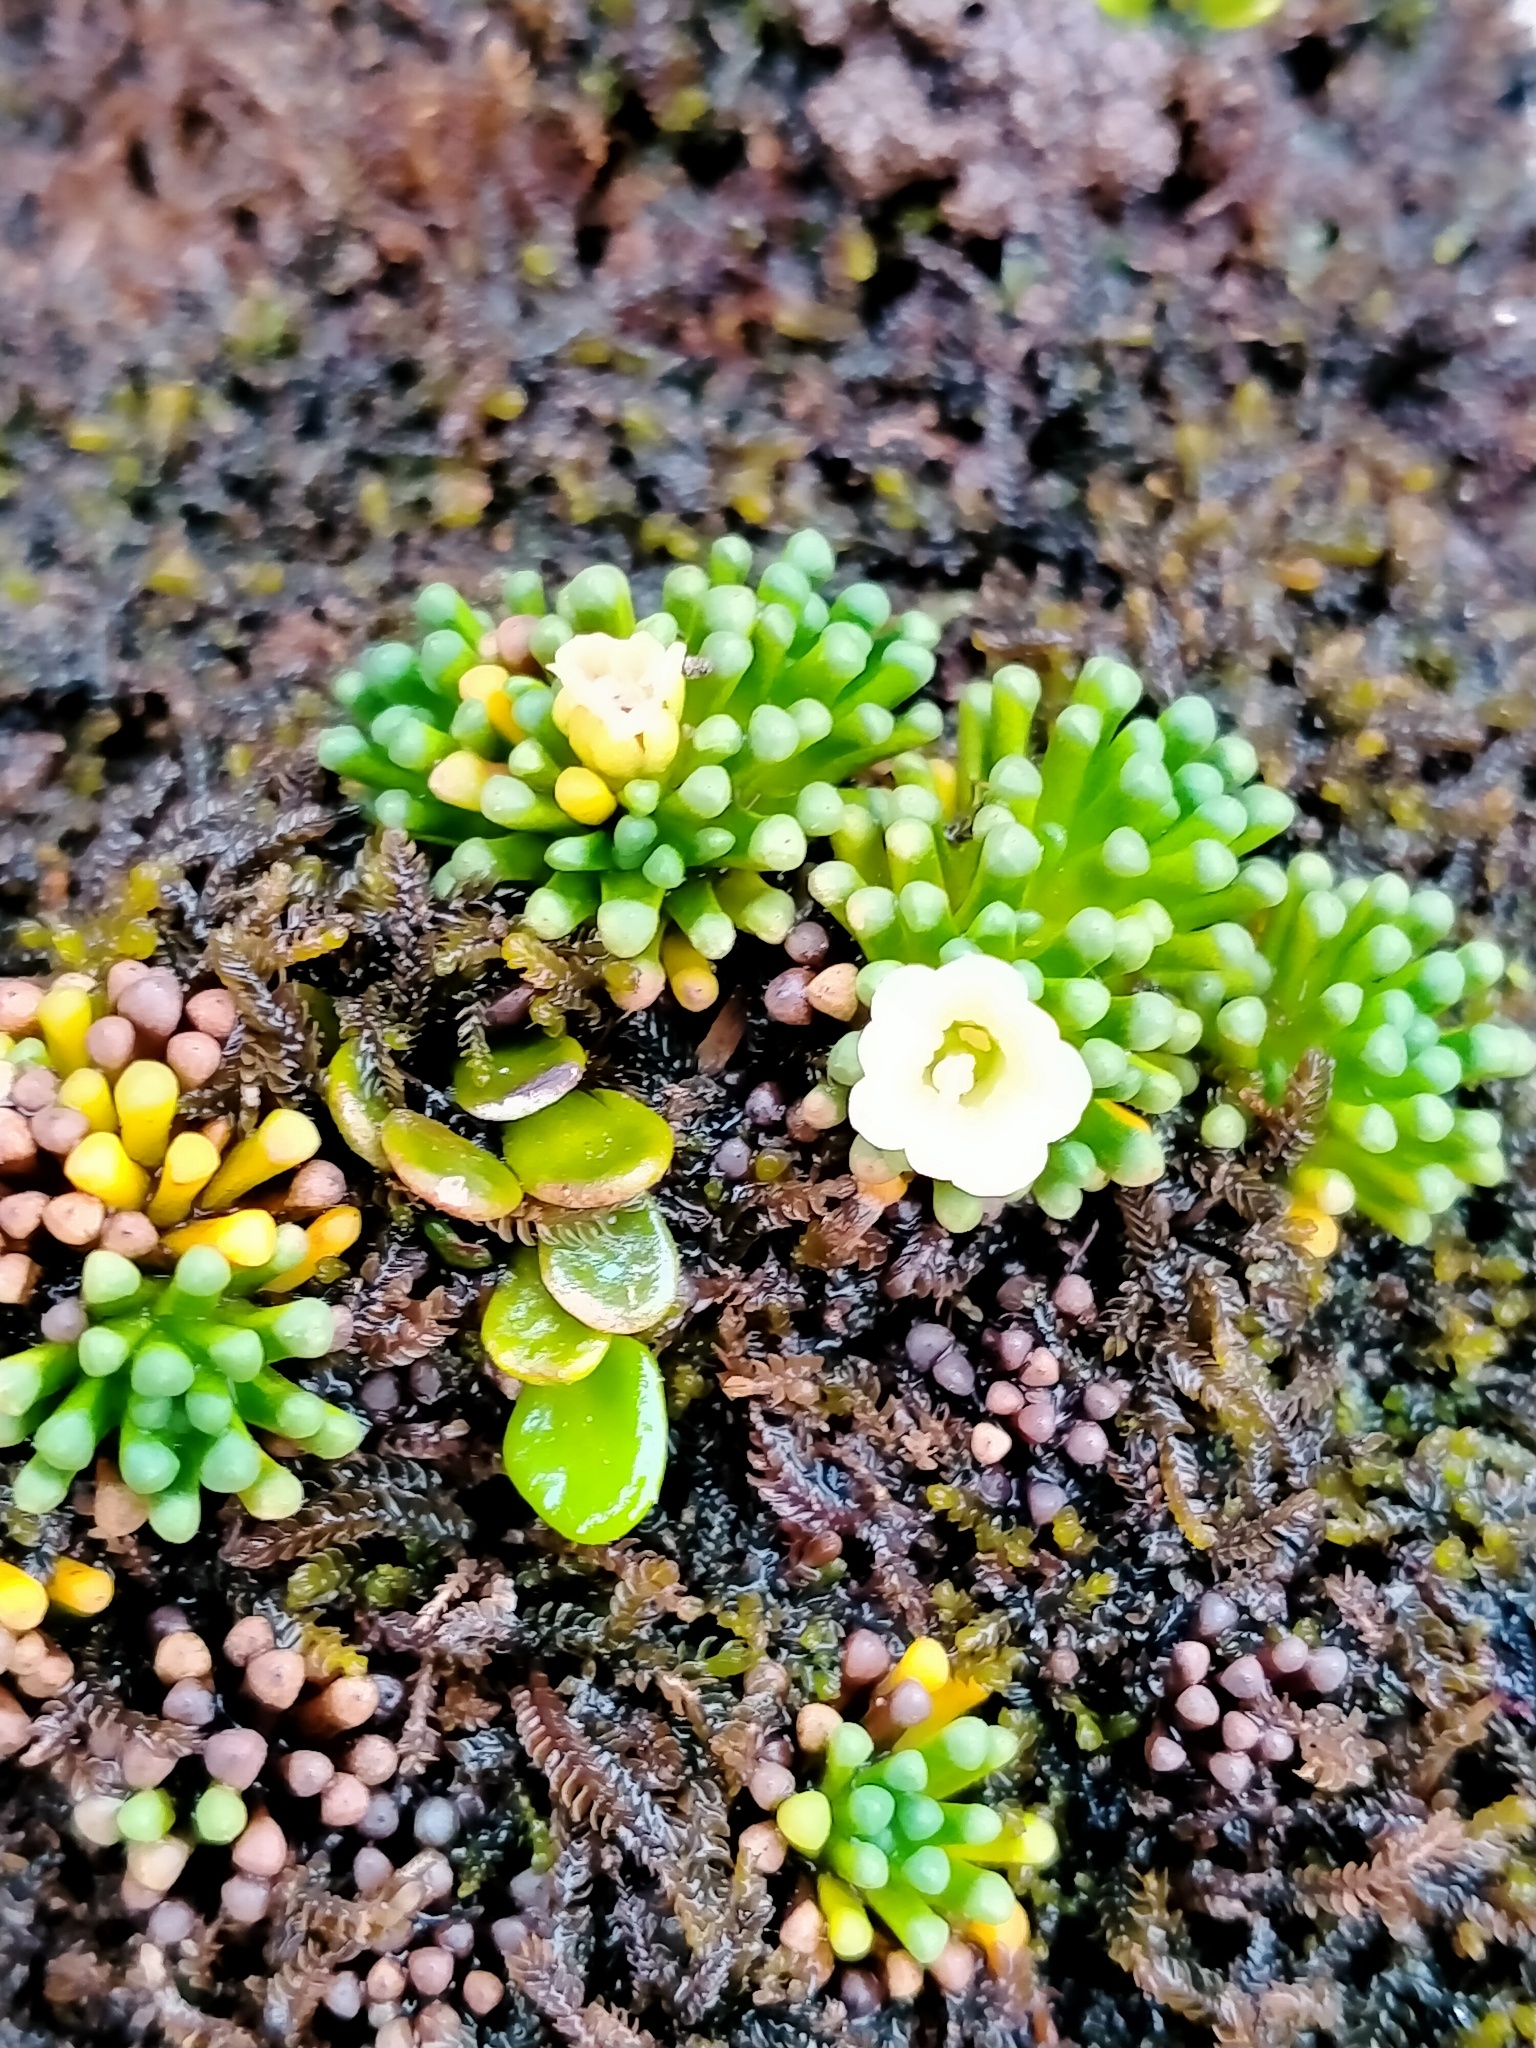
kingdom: Plantae
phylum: Tracheophyta
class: Magnoliopsida
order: Asterales
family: Stylidiaceae
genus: Phyllachne
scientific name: Phyllachne colensoi
